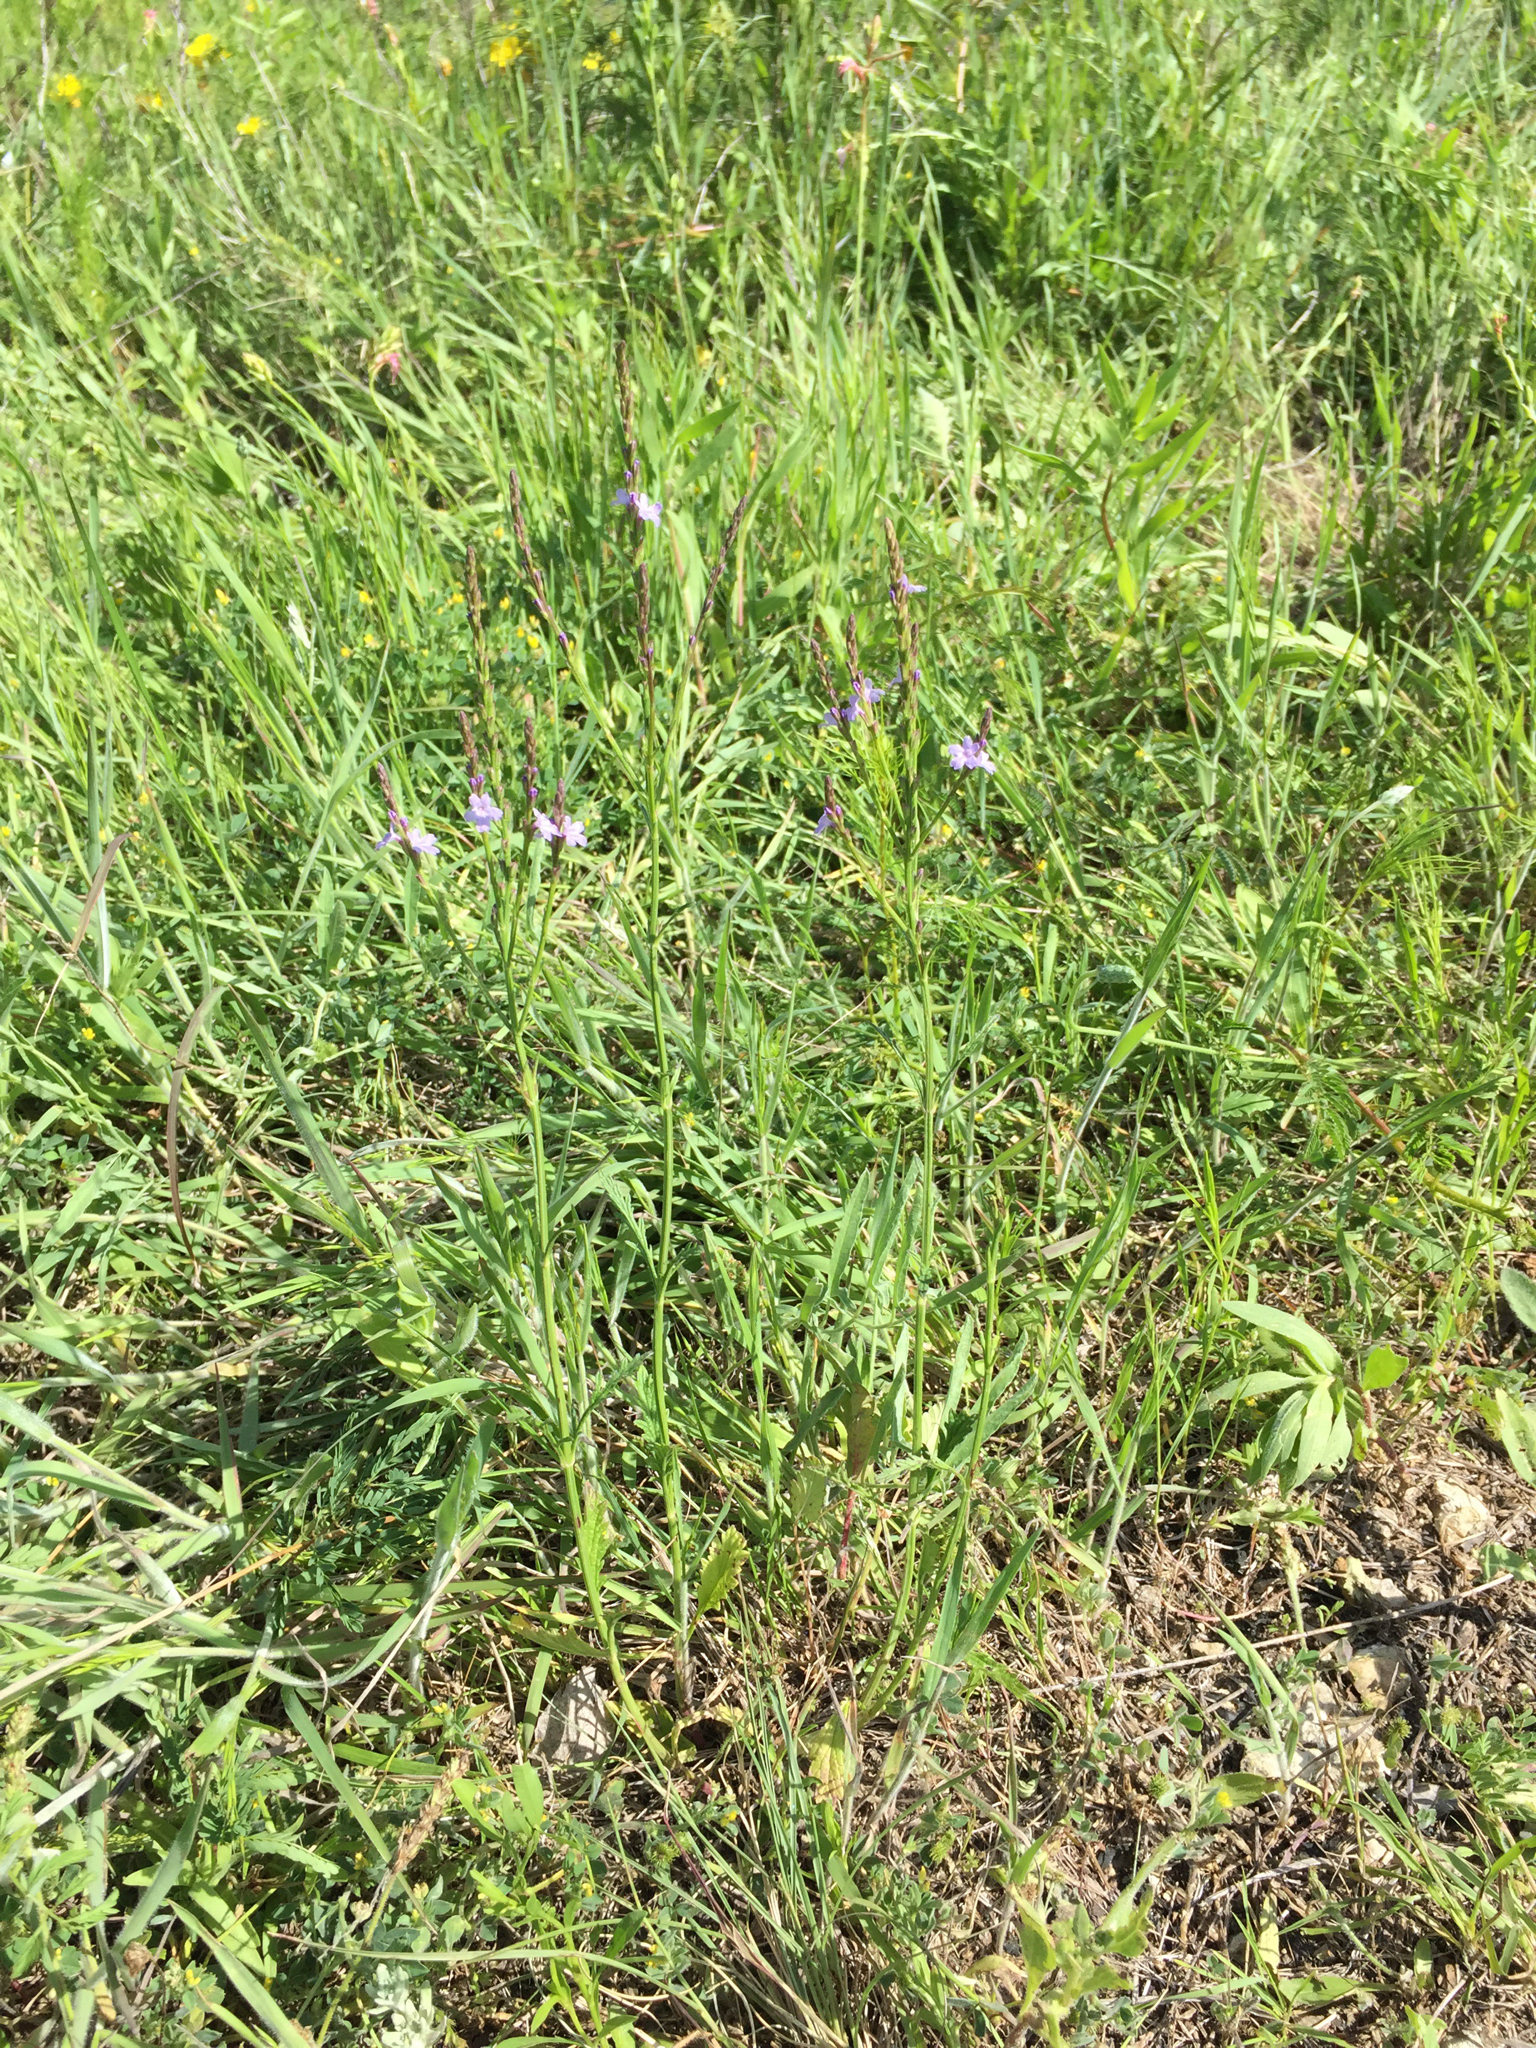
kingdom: Plantae
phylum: Tracheophyta
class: Magnoliopsida
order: Lamiales
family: Verbenaceae
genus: Verbena
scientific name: Verbena halei
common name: Texas vervain
